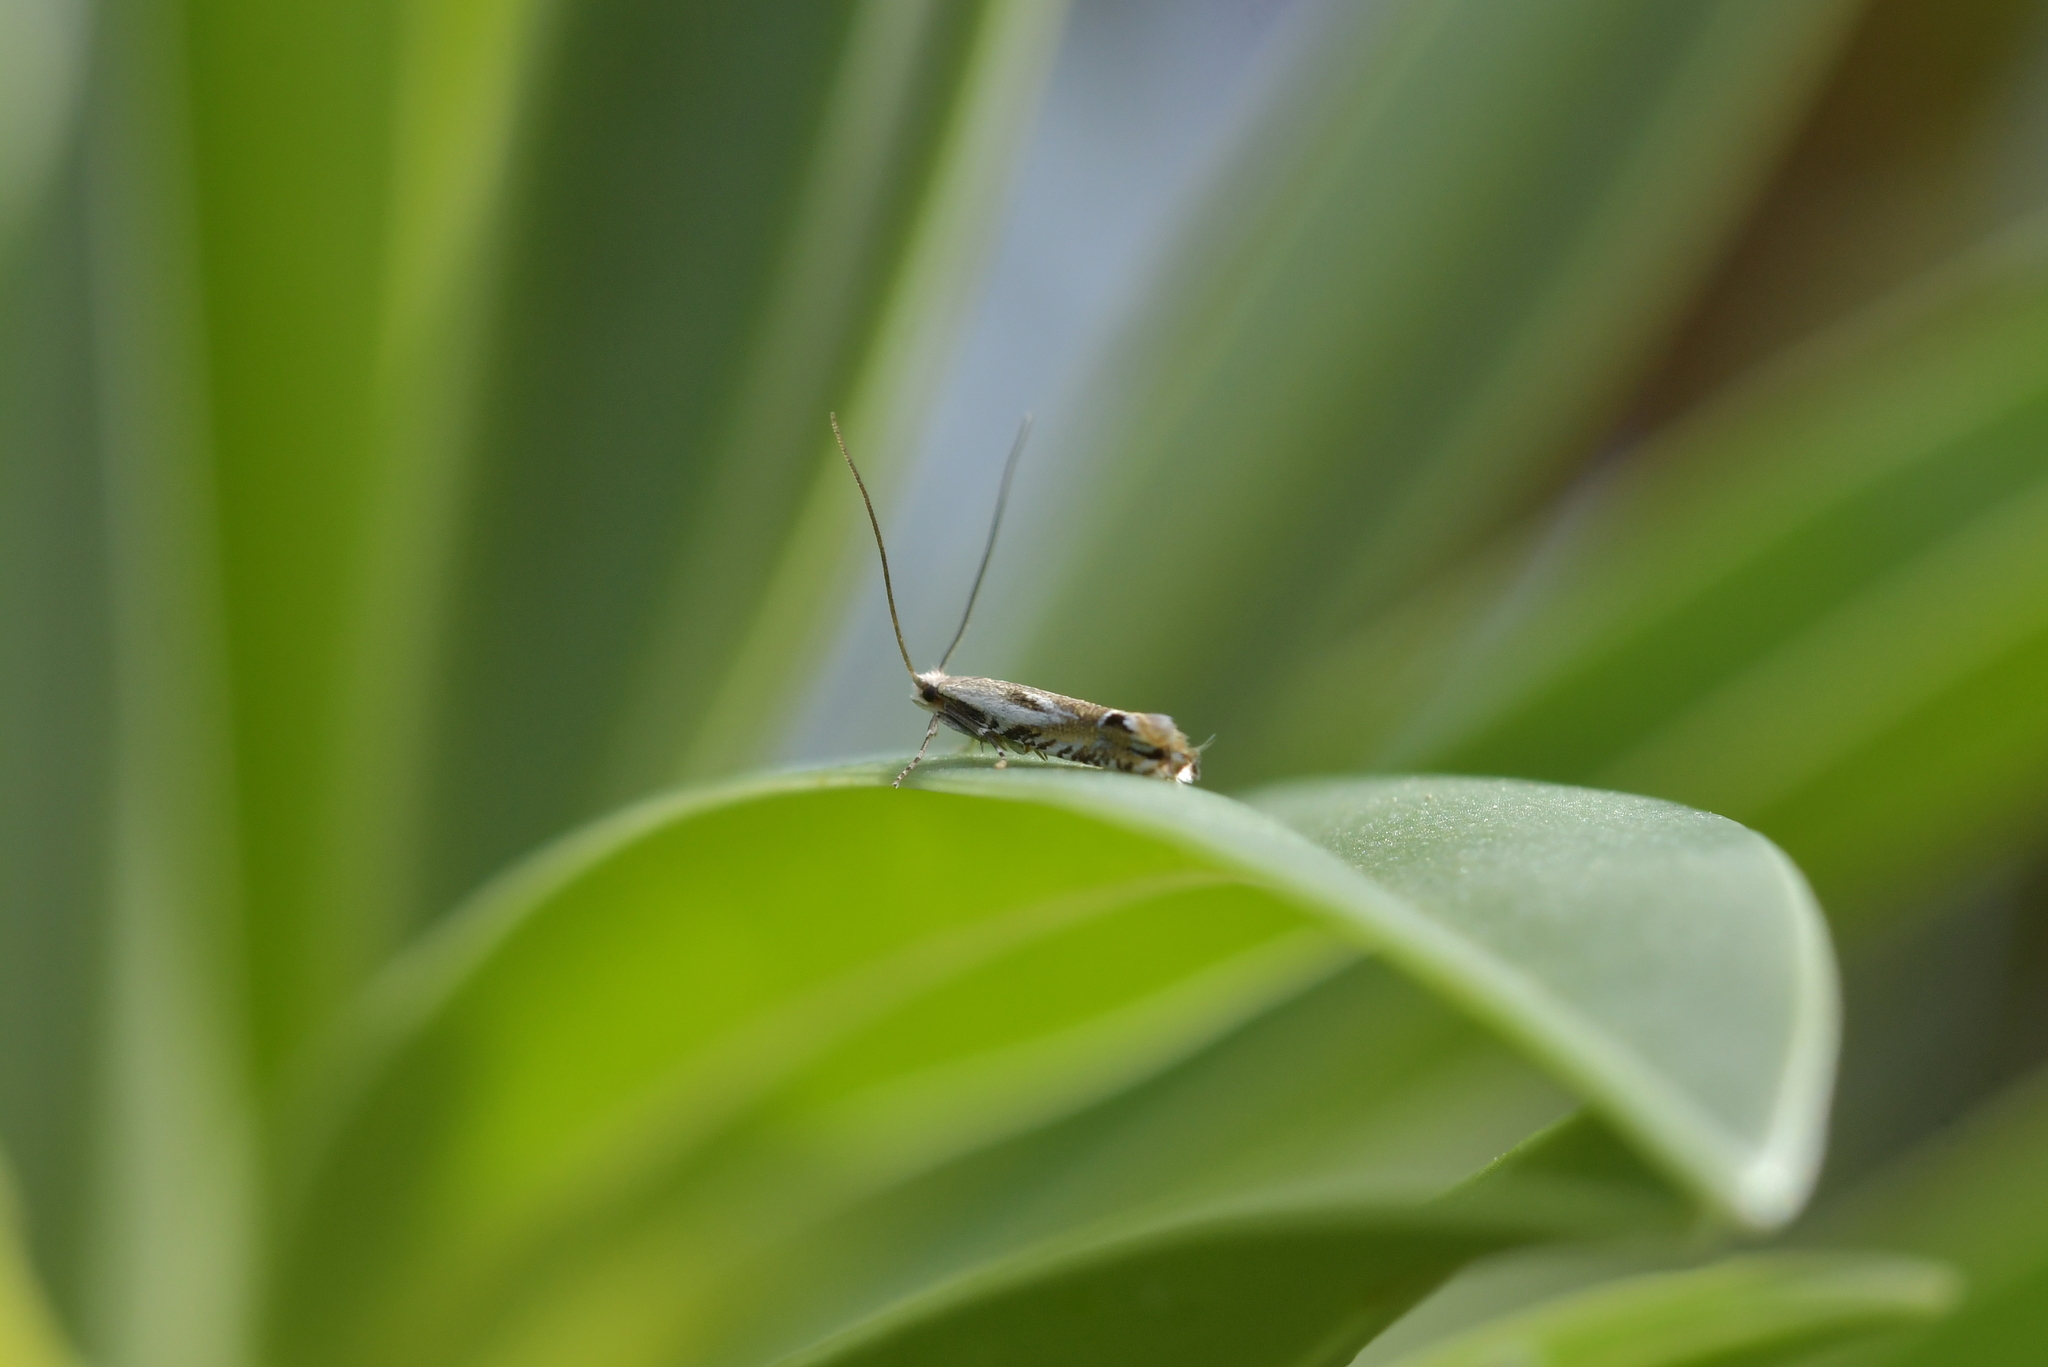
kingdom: Animalia
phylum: Arthropoda
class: Insecta
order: Lepidoptera
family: Tineidae
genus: Erechthias
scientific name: Erechthias decoranda
